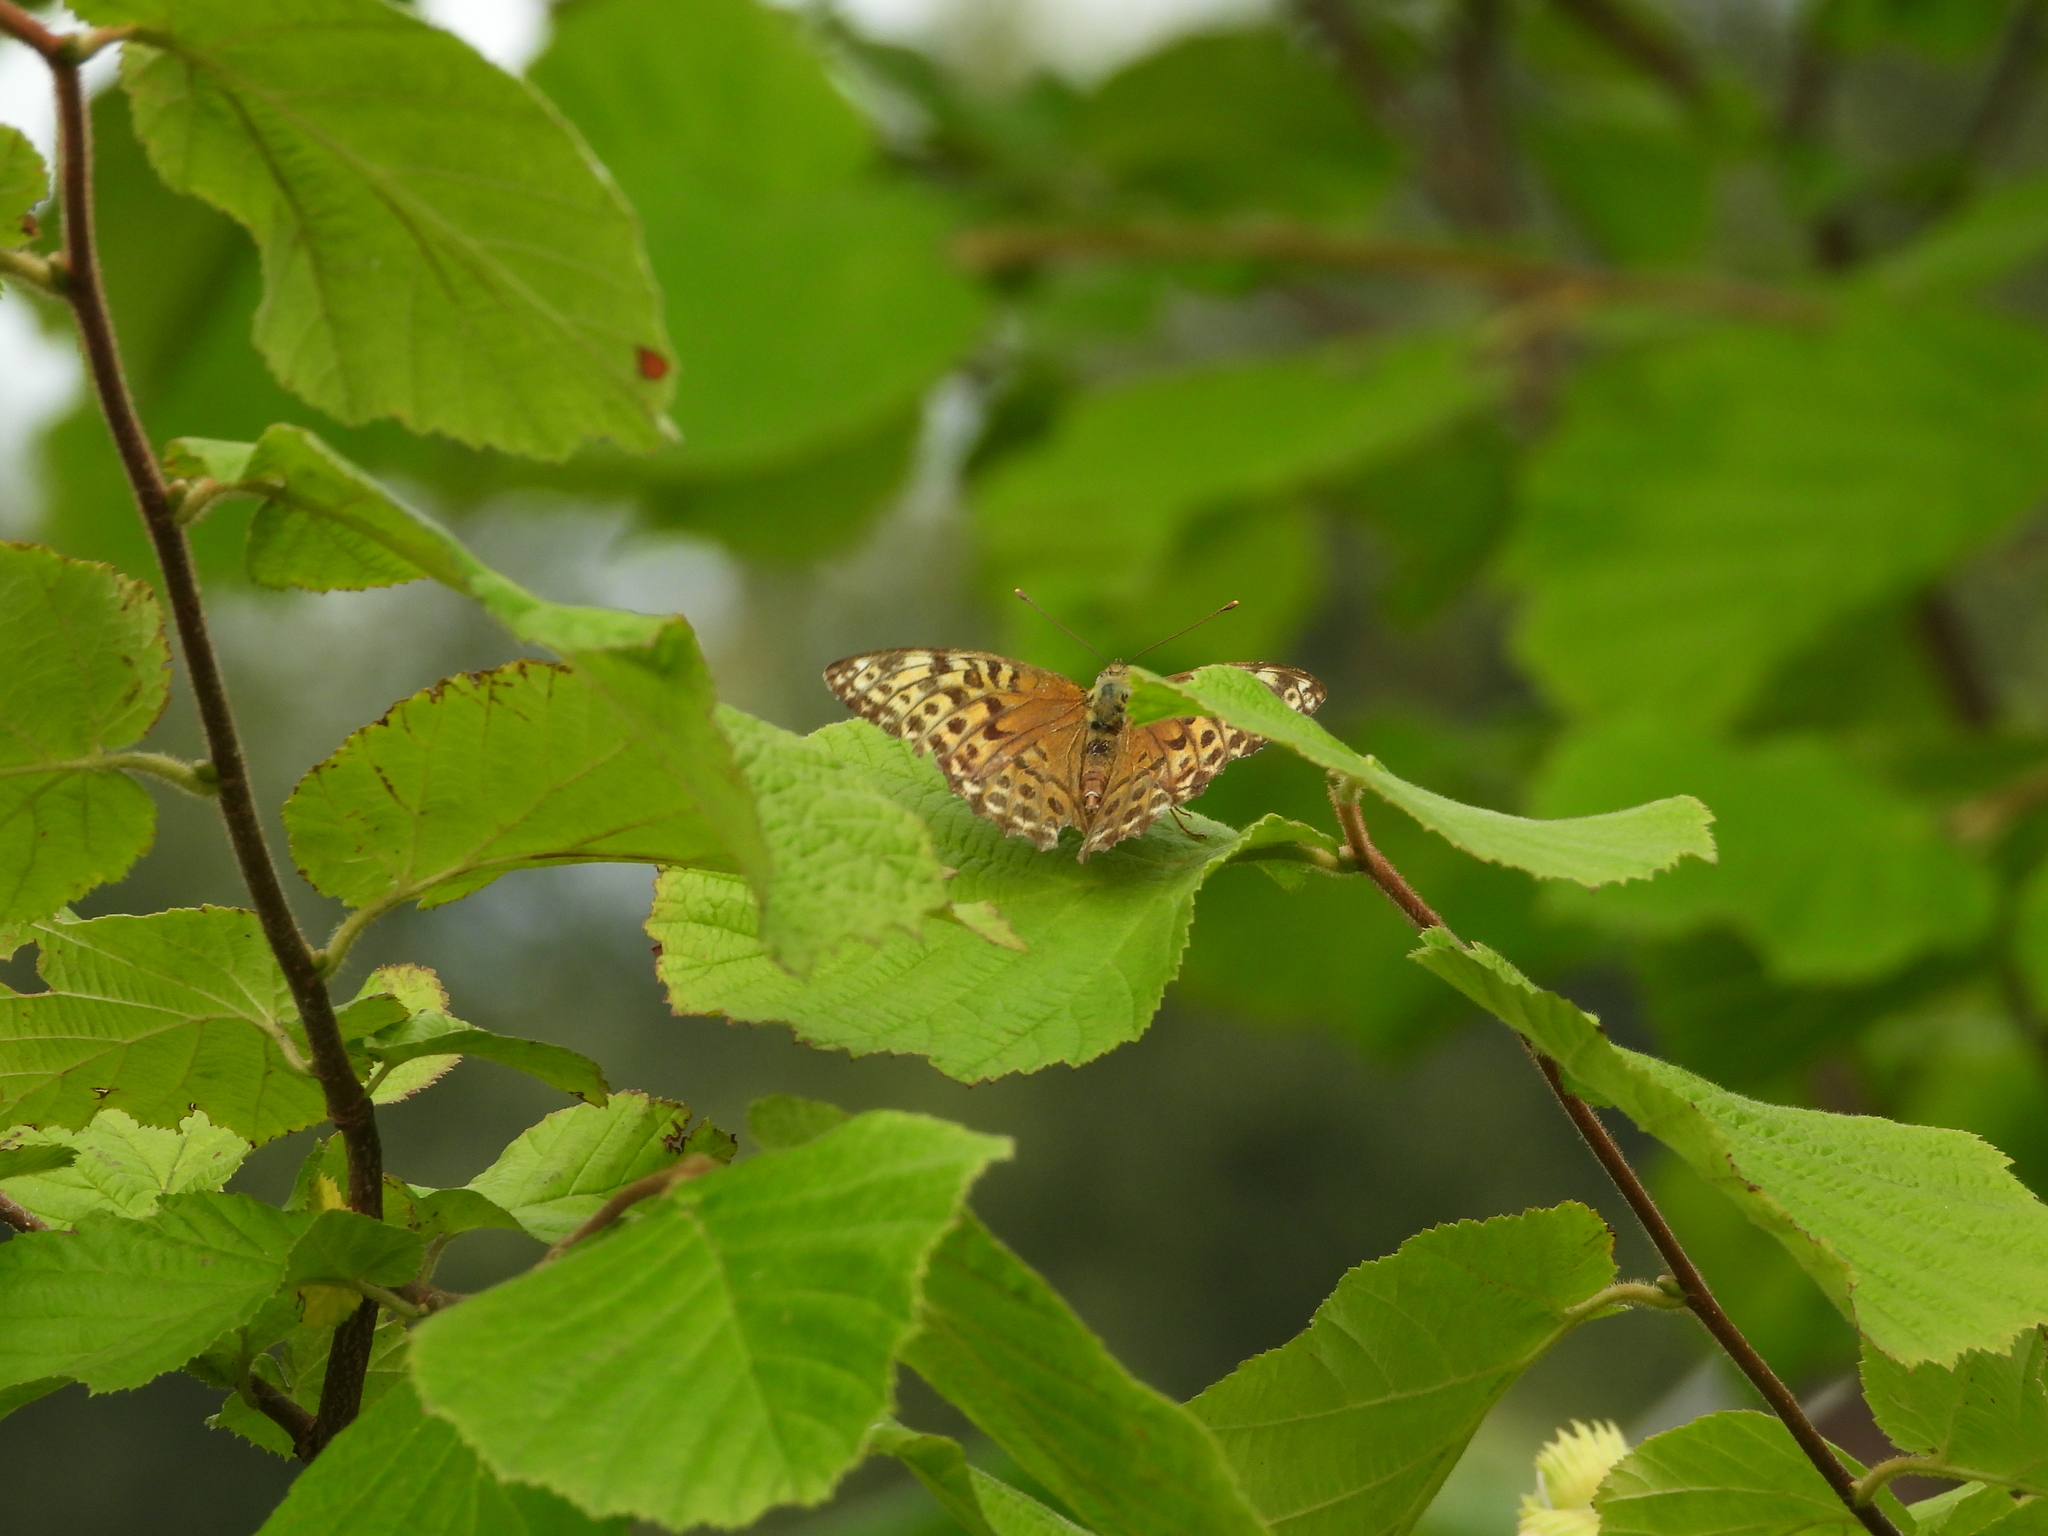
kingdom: Animalia
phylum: Arthropoda
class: Insecta
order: Lepidoptera
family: Nymphalidae
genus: Argynnis
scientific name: Argynnis paphia
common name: Silver-washed fritillary
